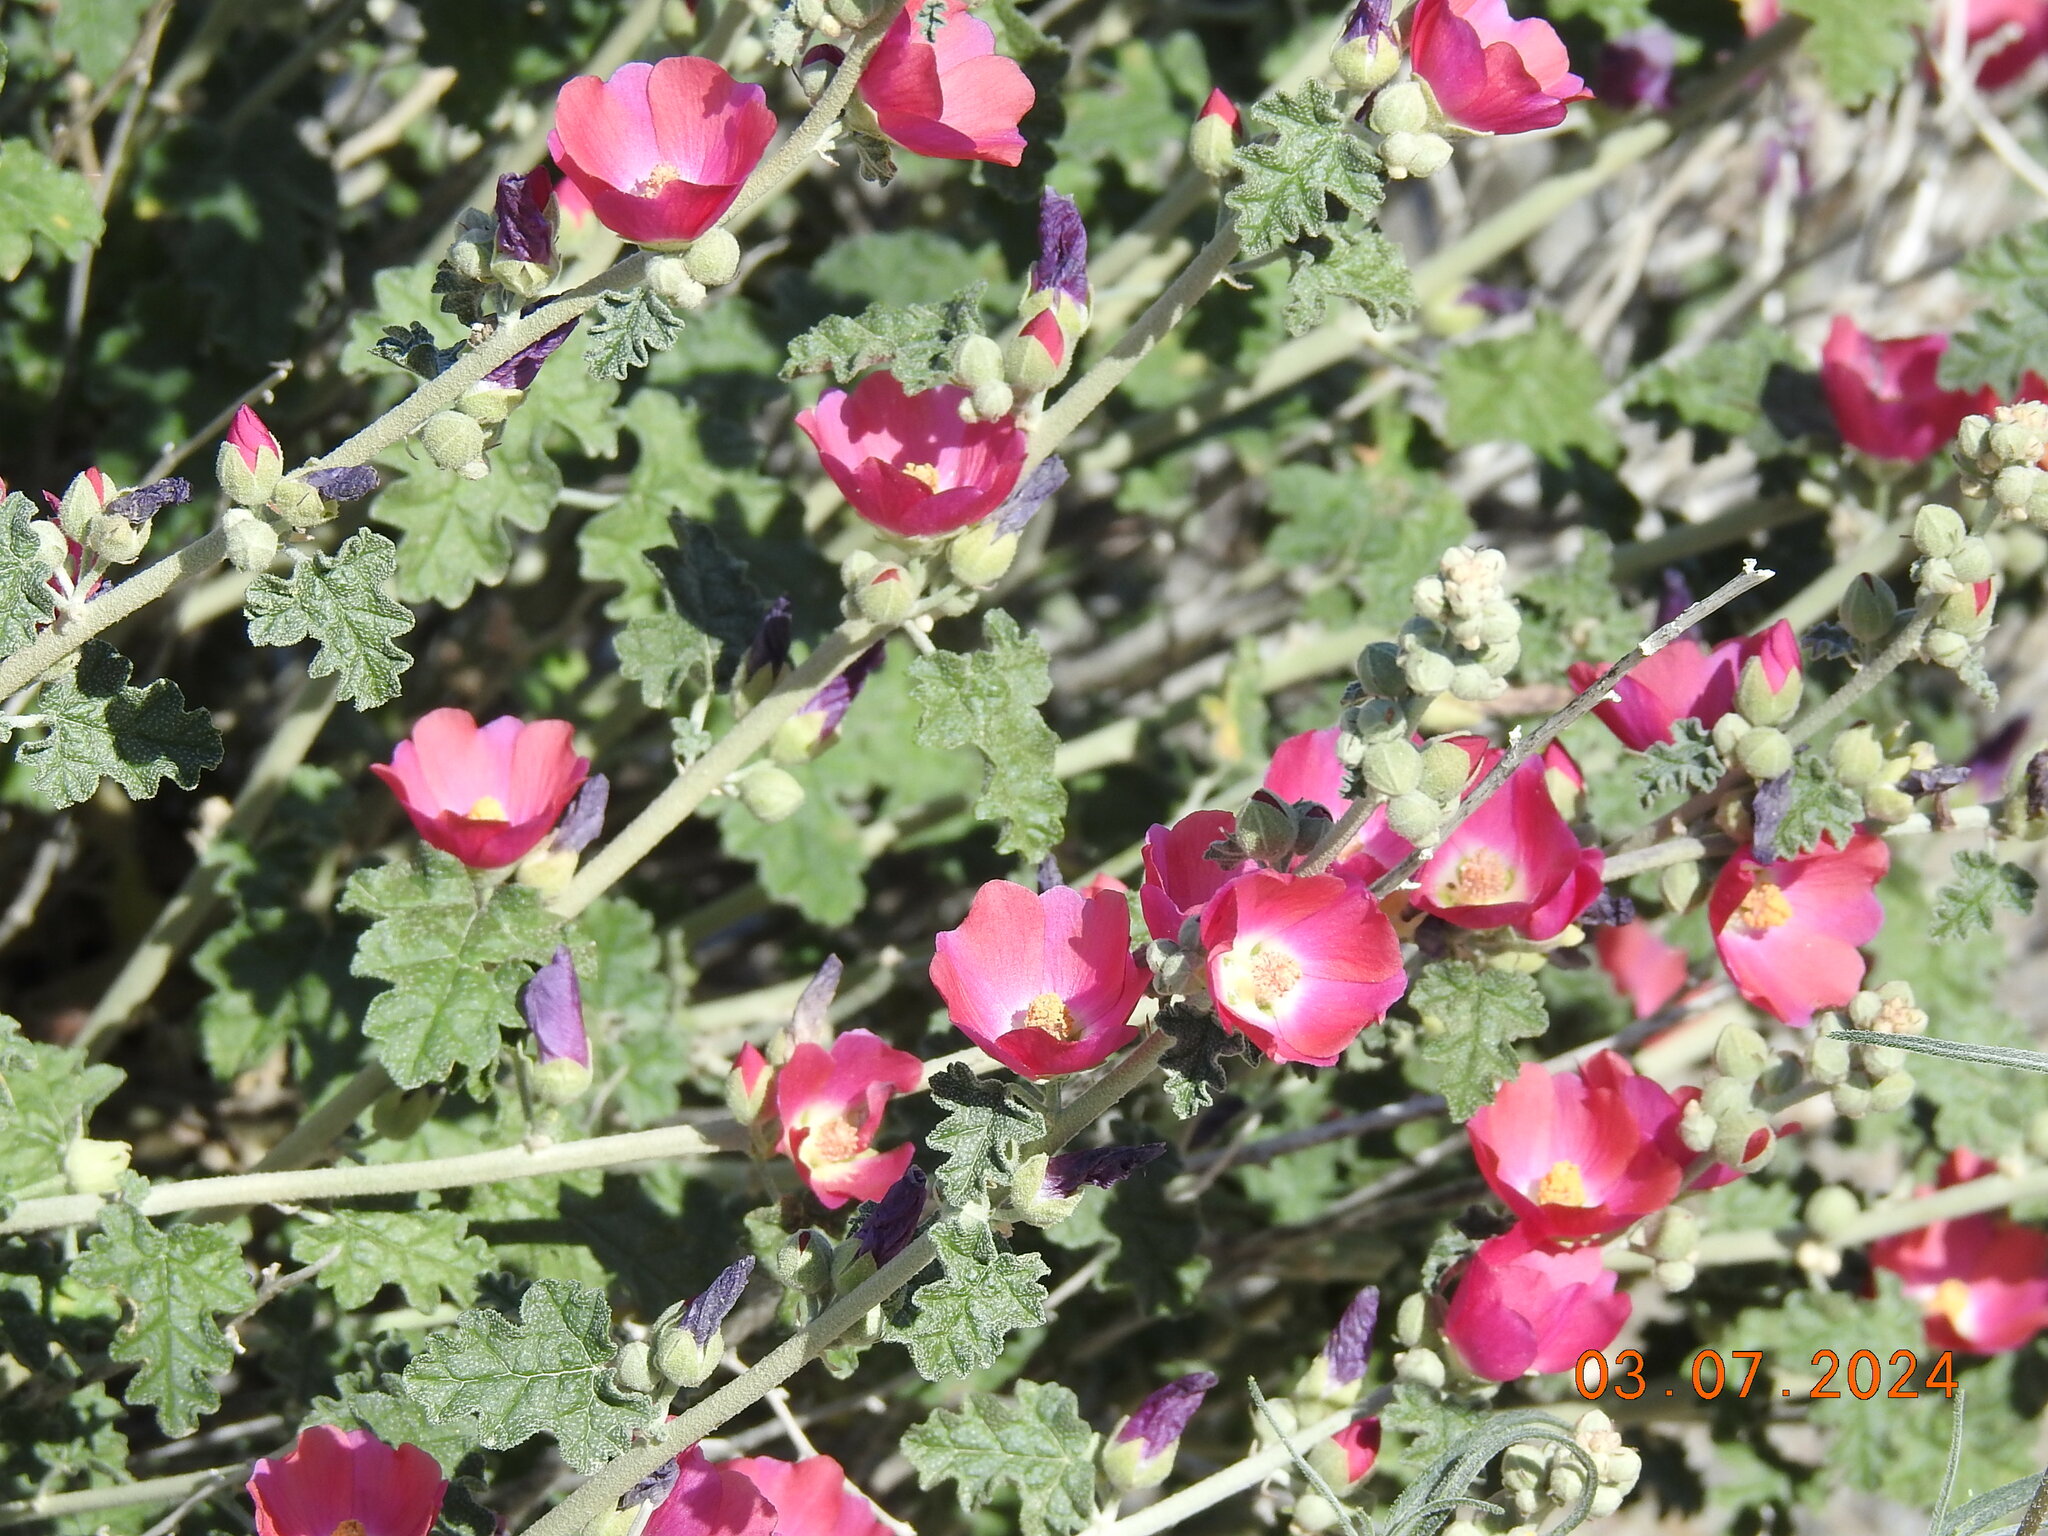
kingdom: Plantae
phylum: Tracheophyta
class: Magnoliopsida
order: Malvales
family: Malvaceae
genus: Sphaeralcea
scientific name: Sphaeralcea ambigua
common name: Apricot globe-mallow
